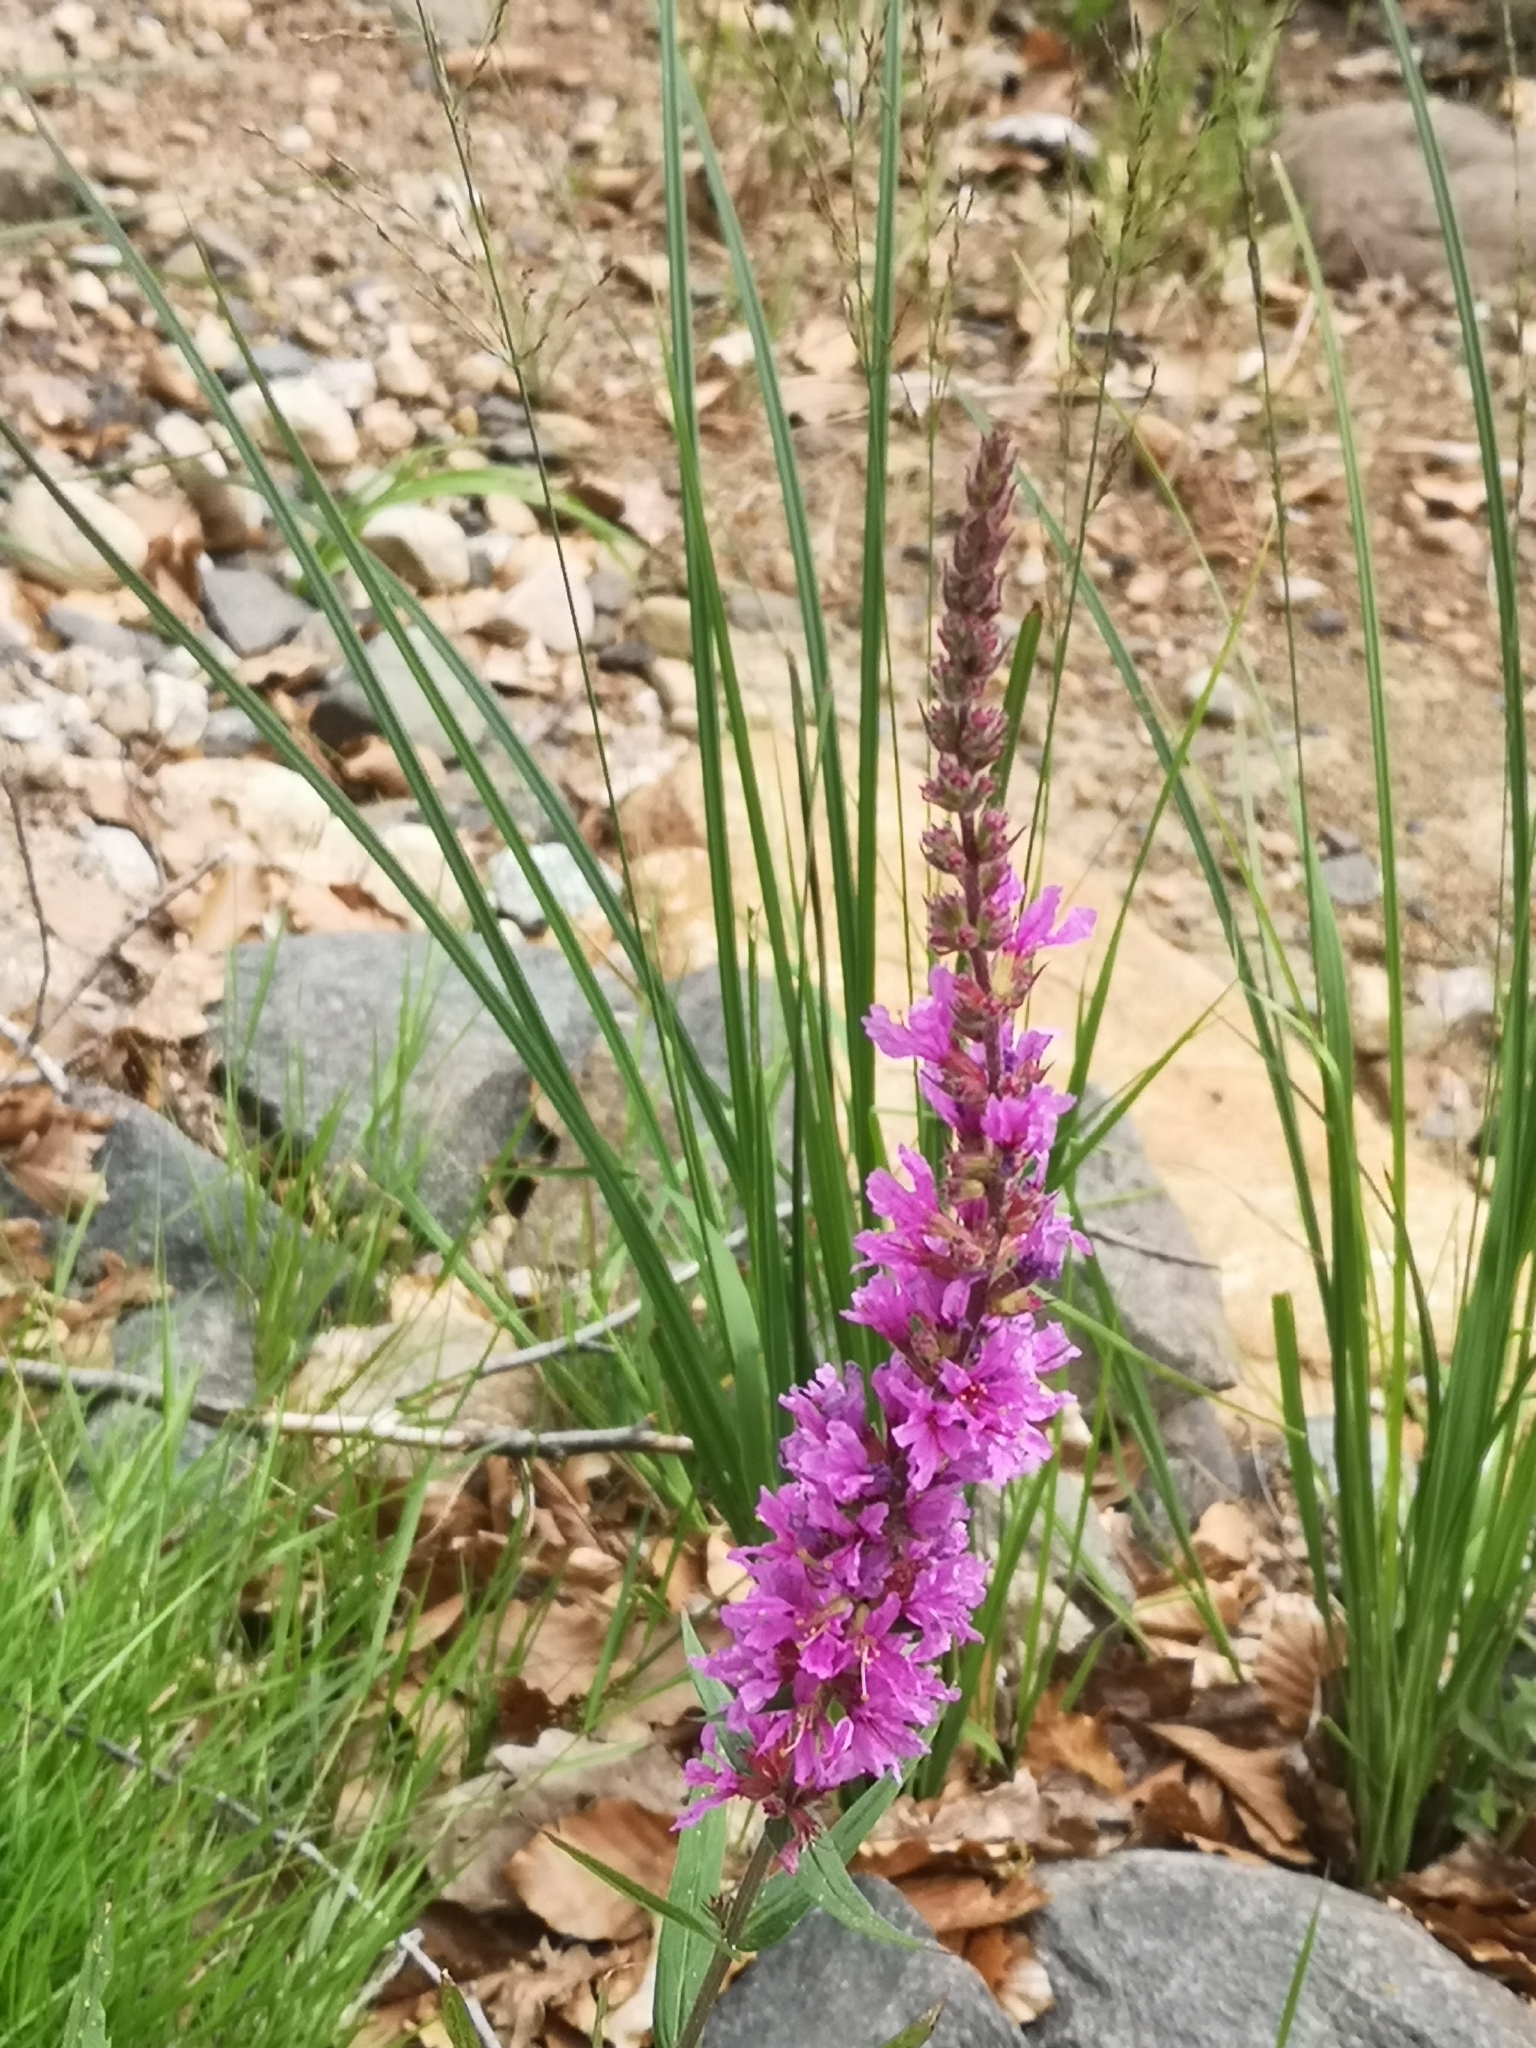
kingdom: Plantae
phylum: Tracheophyta
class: Magnoliopsida
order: Myrtales
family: Lythraceae
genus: Lythrum
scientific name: Lythrum salicaria
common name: Purple loosestrife
